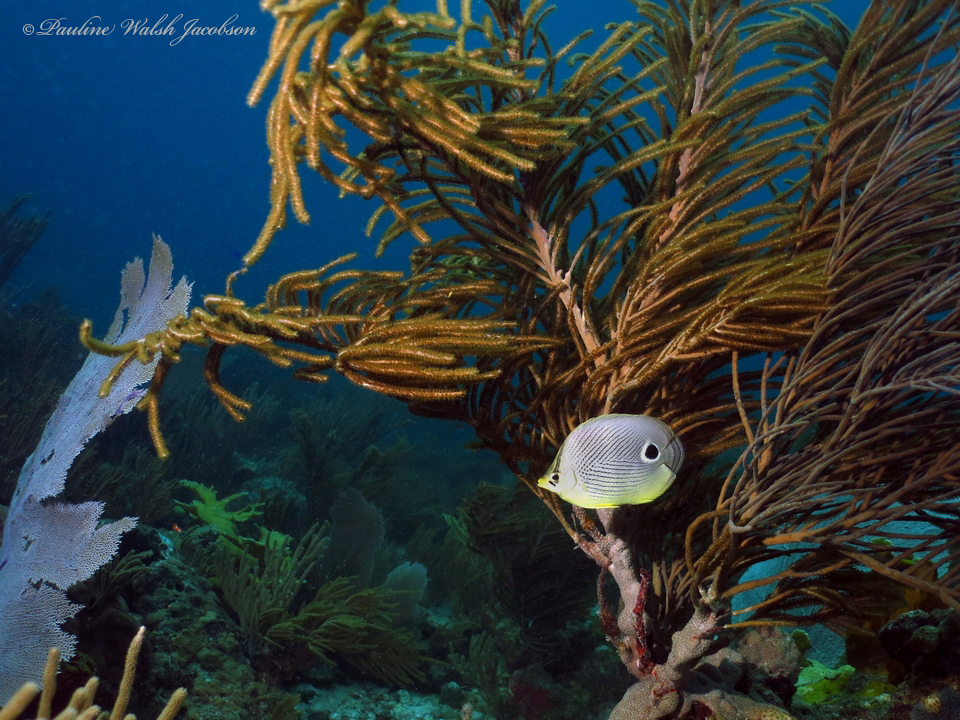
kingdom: Animalia
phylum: Chordata
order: Perciformes
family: Chaetodontidae
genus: Chaetodon
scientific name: Chaetodon capistratus
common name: Kete
